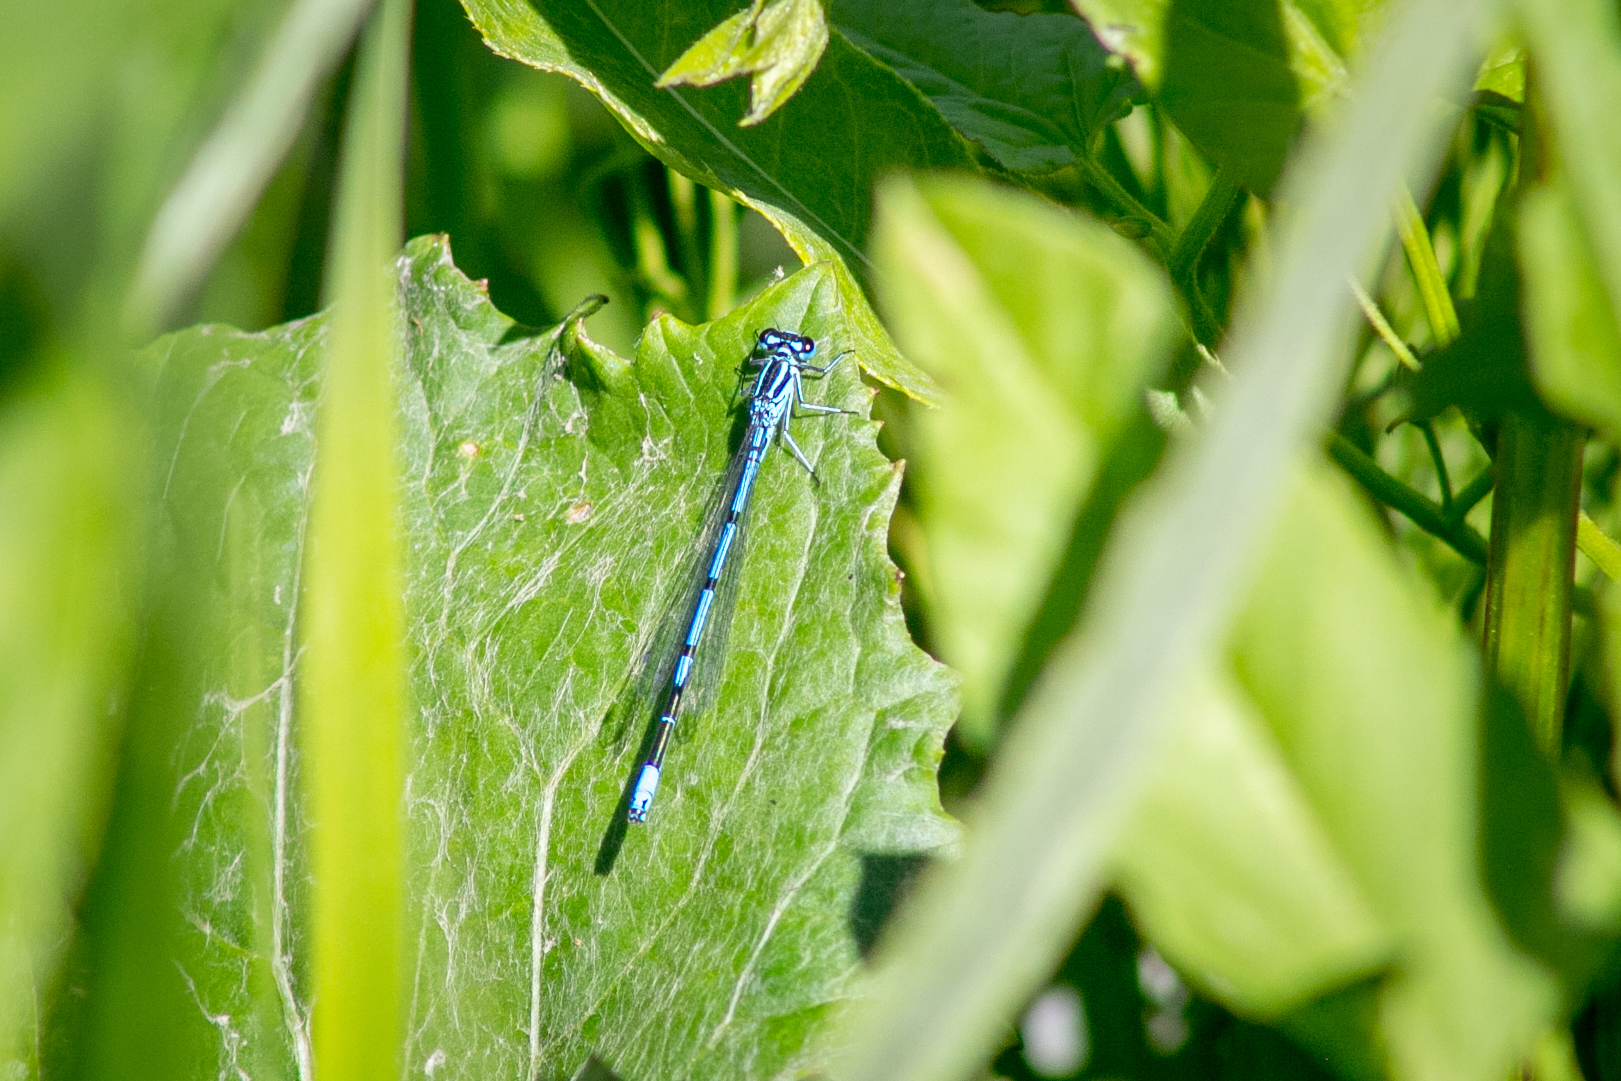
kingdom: Animalia
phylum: Arthropoda
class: Insecta
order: Odonata
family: Coenagrionidae
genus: Coenagrion
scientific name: Coenagrion puella
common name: Azure damselfly
